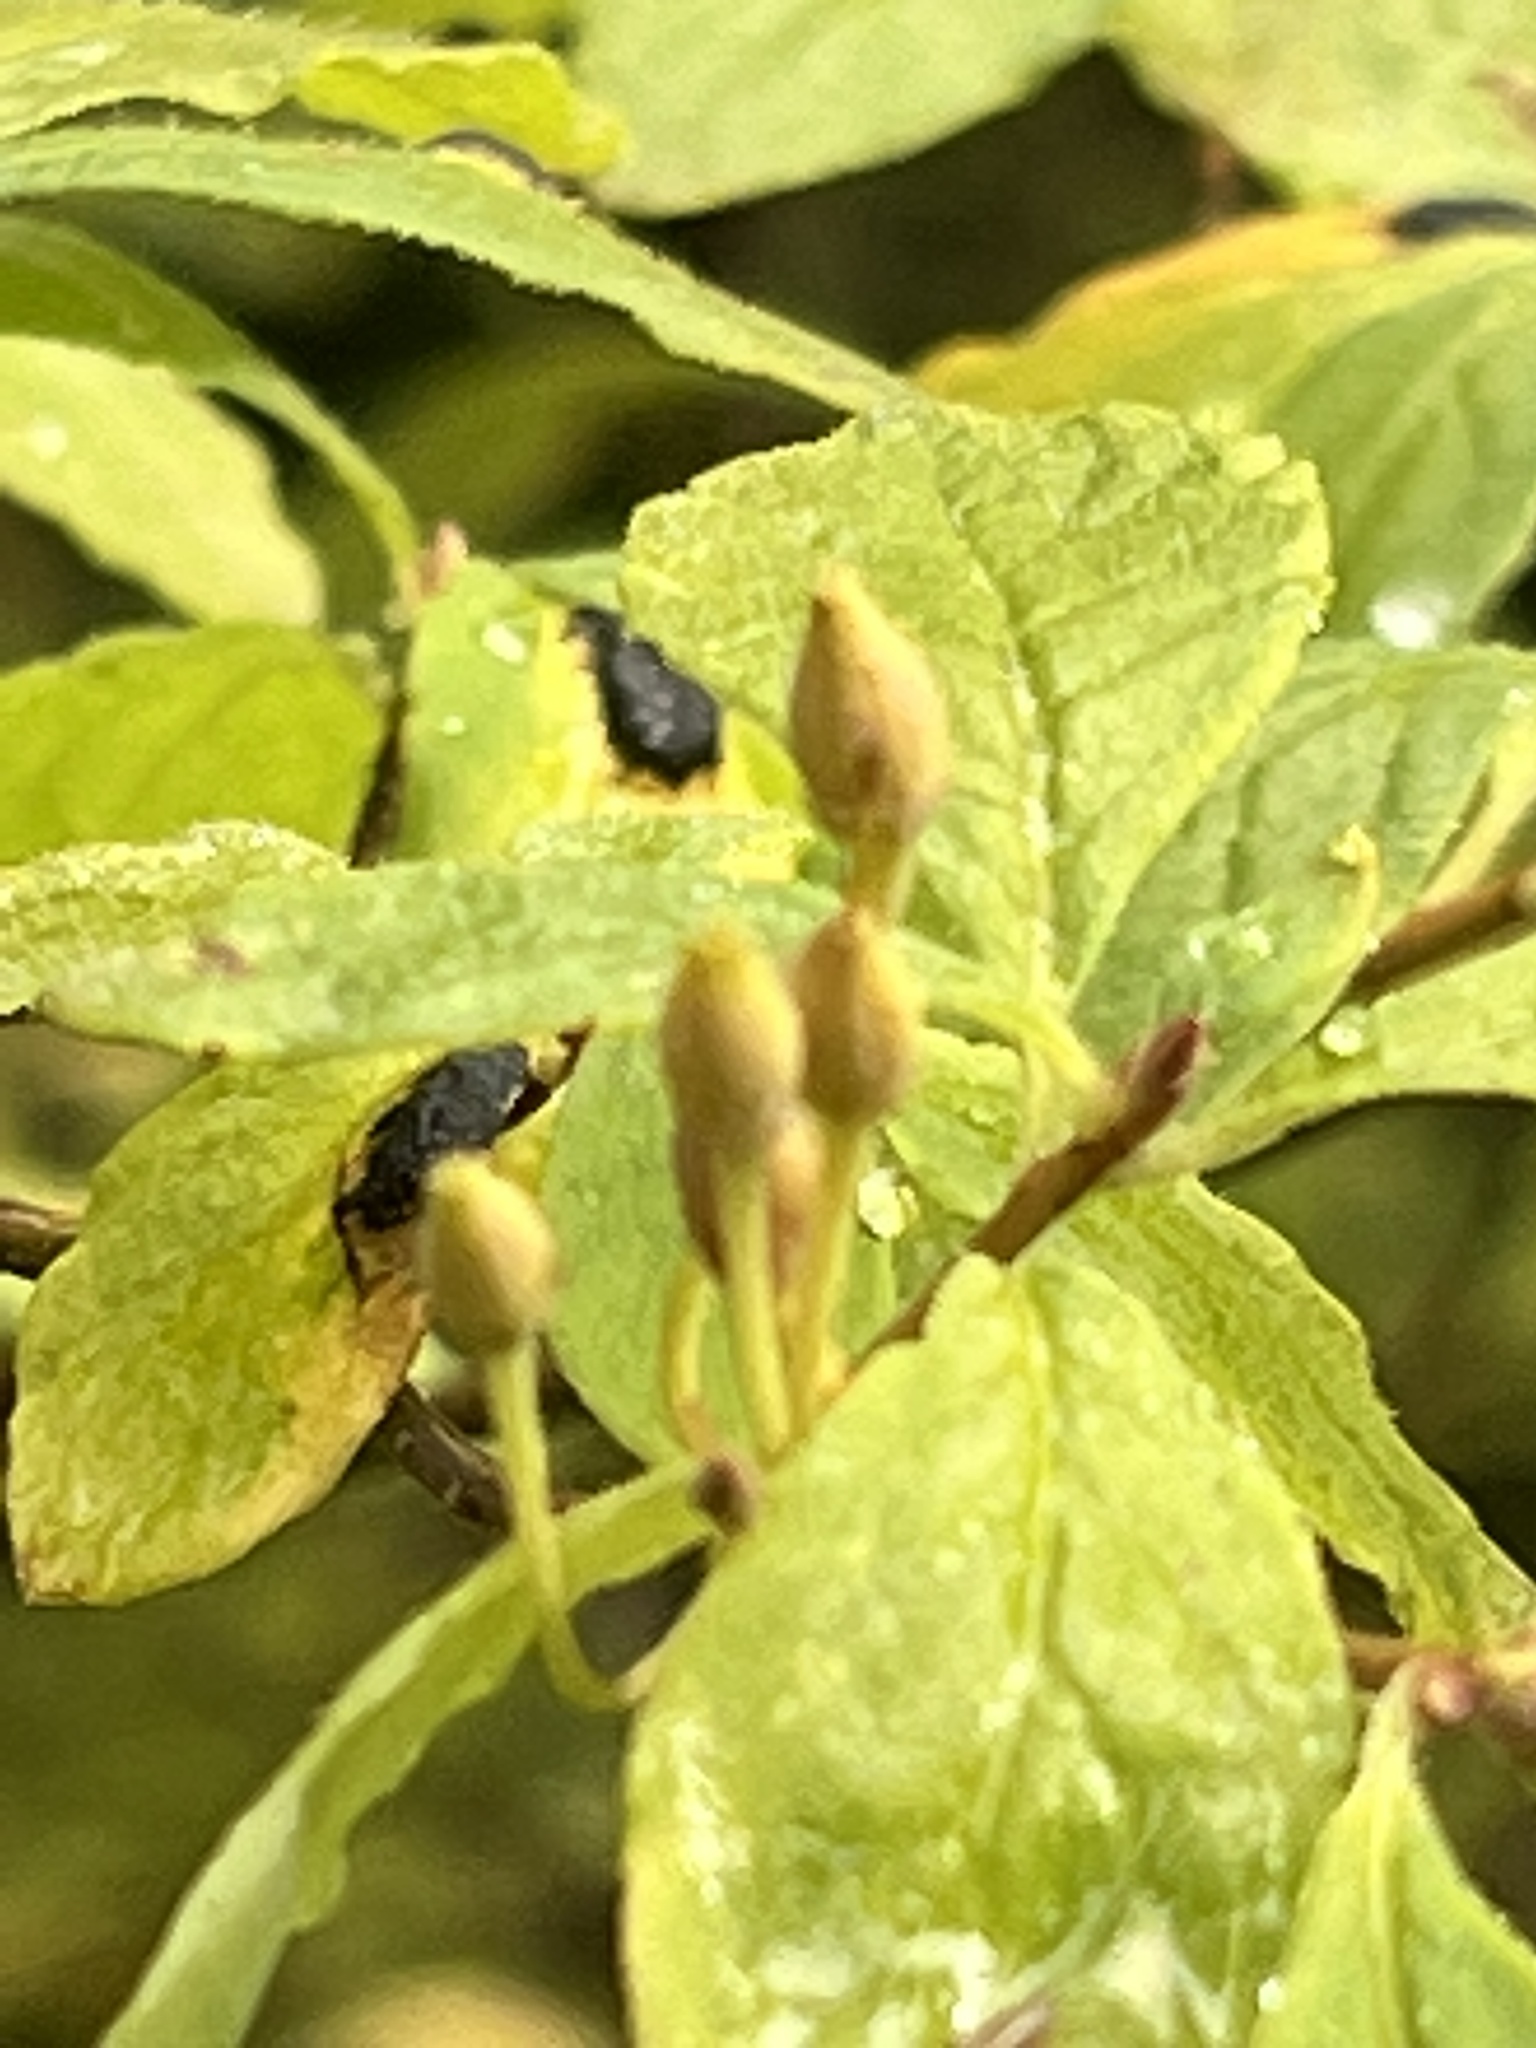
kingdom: Plantae
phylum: Tracheophyta
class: Magnoliopsida
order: Ericales
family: Ericaceae
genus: Rhododendron
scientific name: Rhododendron menziesii
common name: Pacific menziesia
